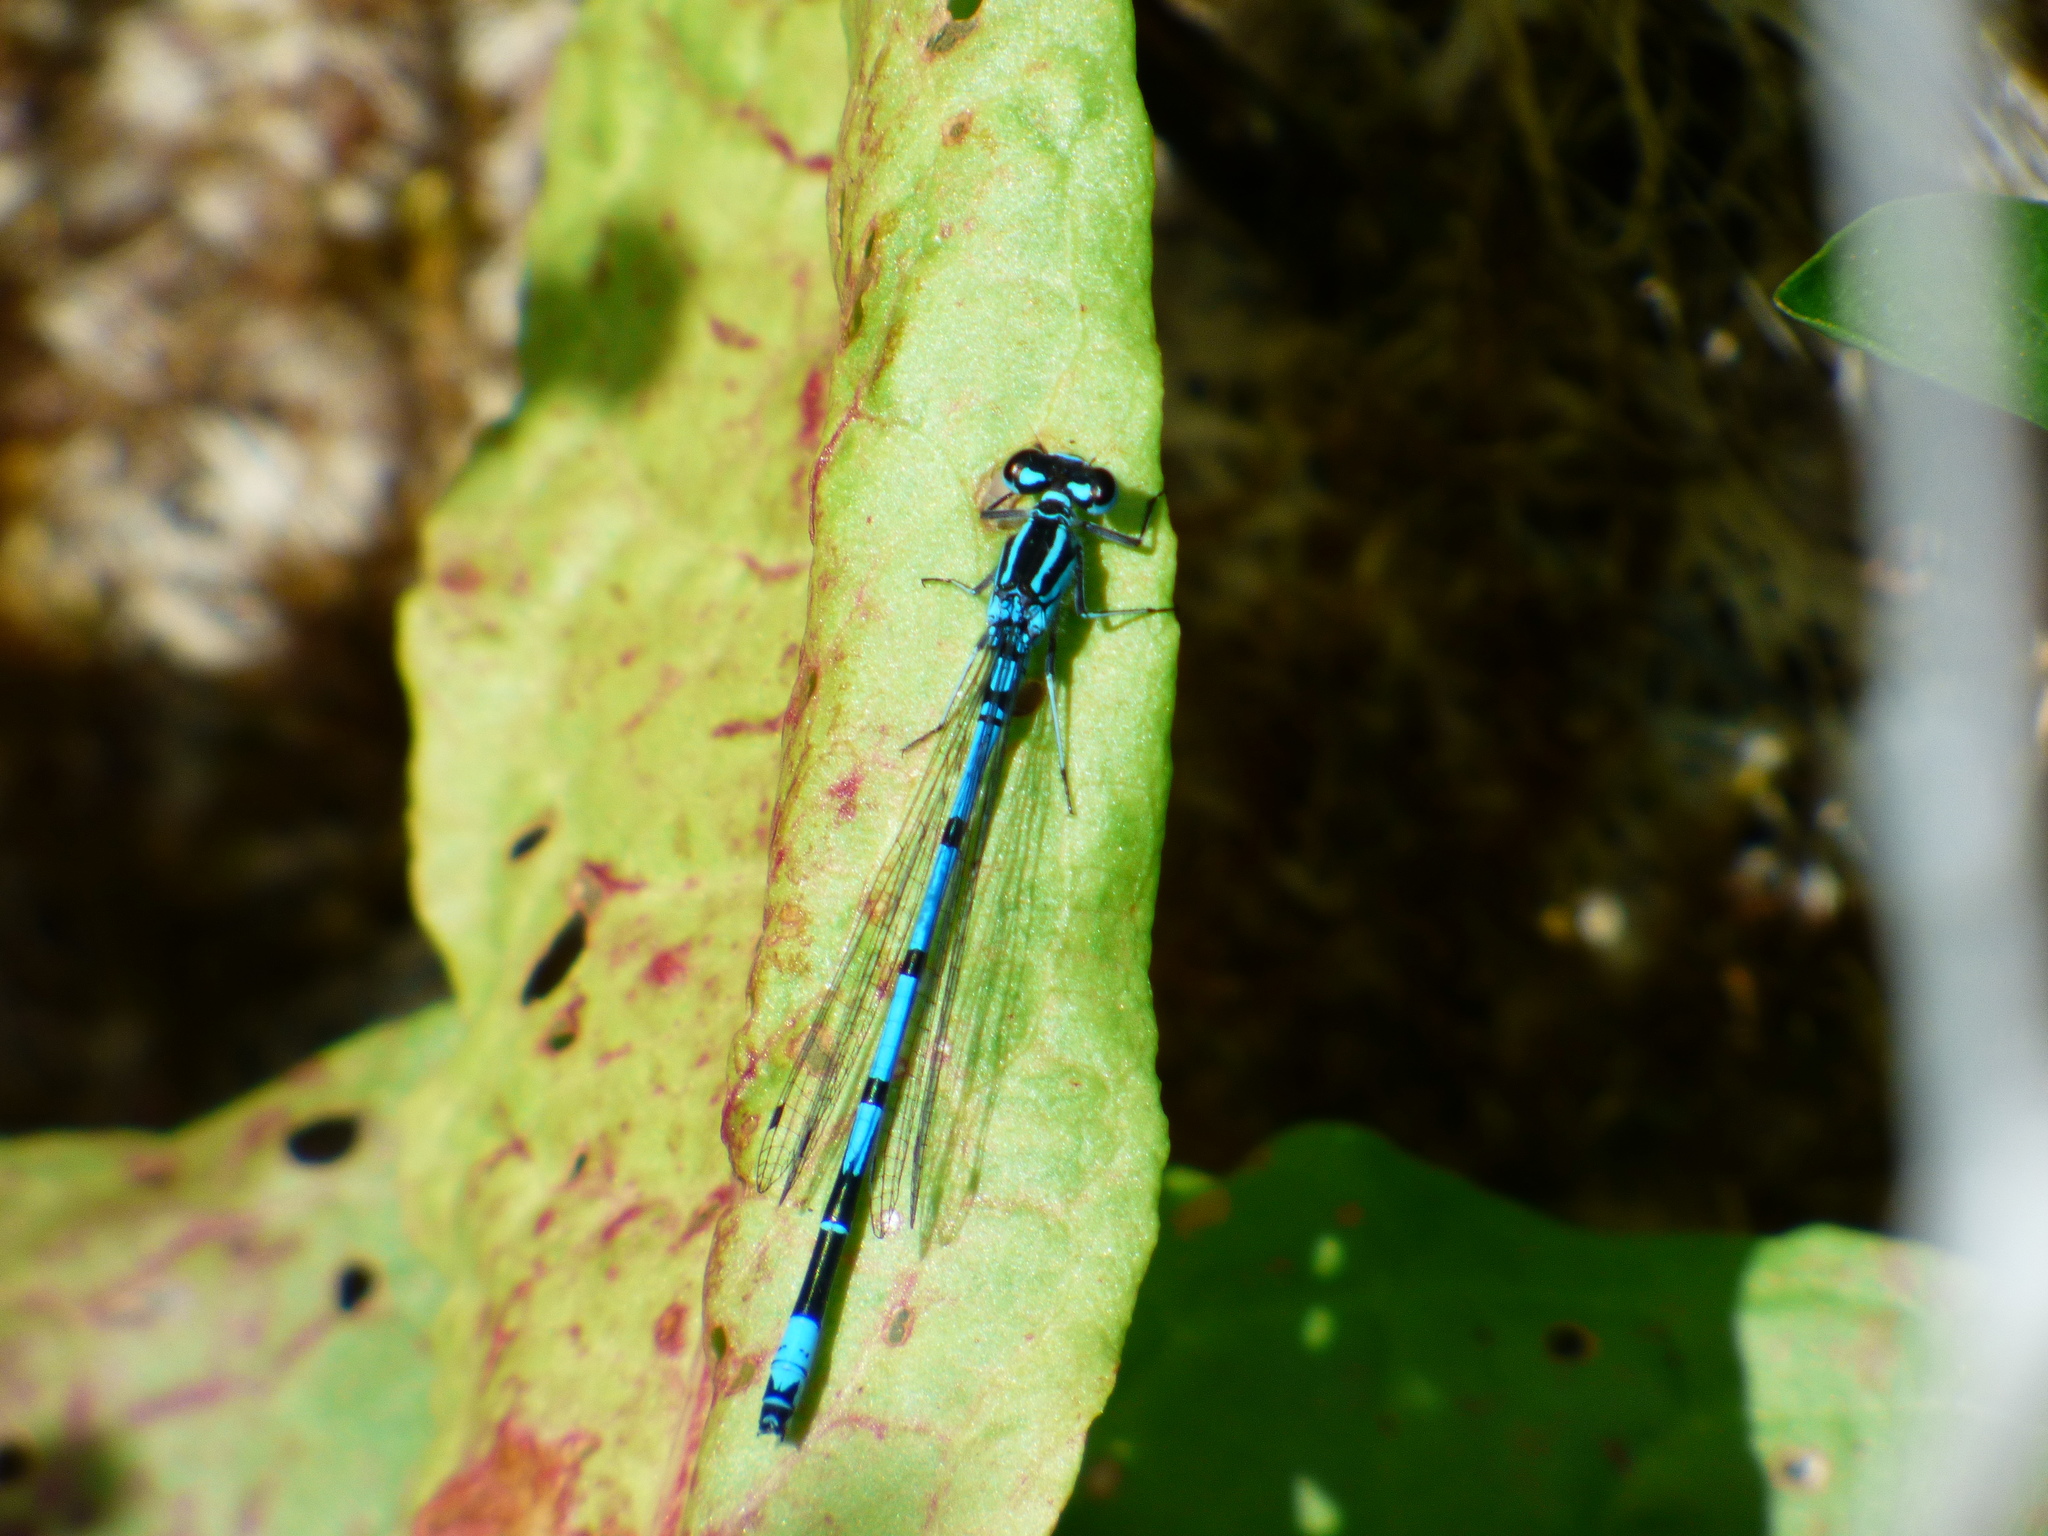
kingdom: Animalia
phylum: Arthropoda
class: Insecta
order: Odonata
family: Coenagrionidae
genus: Coenagrion
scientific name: Coenagrion puella
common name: Azure damselfly
